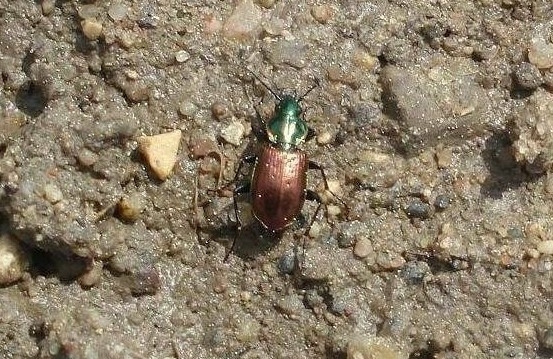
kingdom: Animalia
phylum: Arthropoda
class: Insecta
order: Coleoptera
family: Carabidae
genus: Agonum
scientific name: Agonum sexpunctatum
